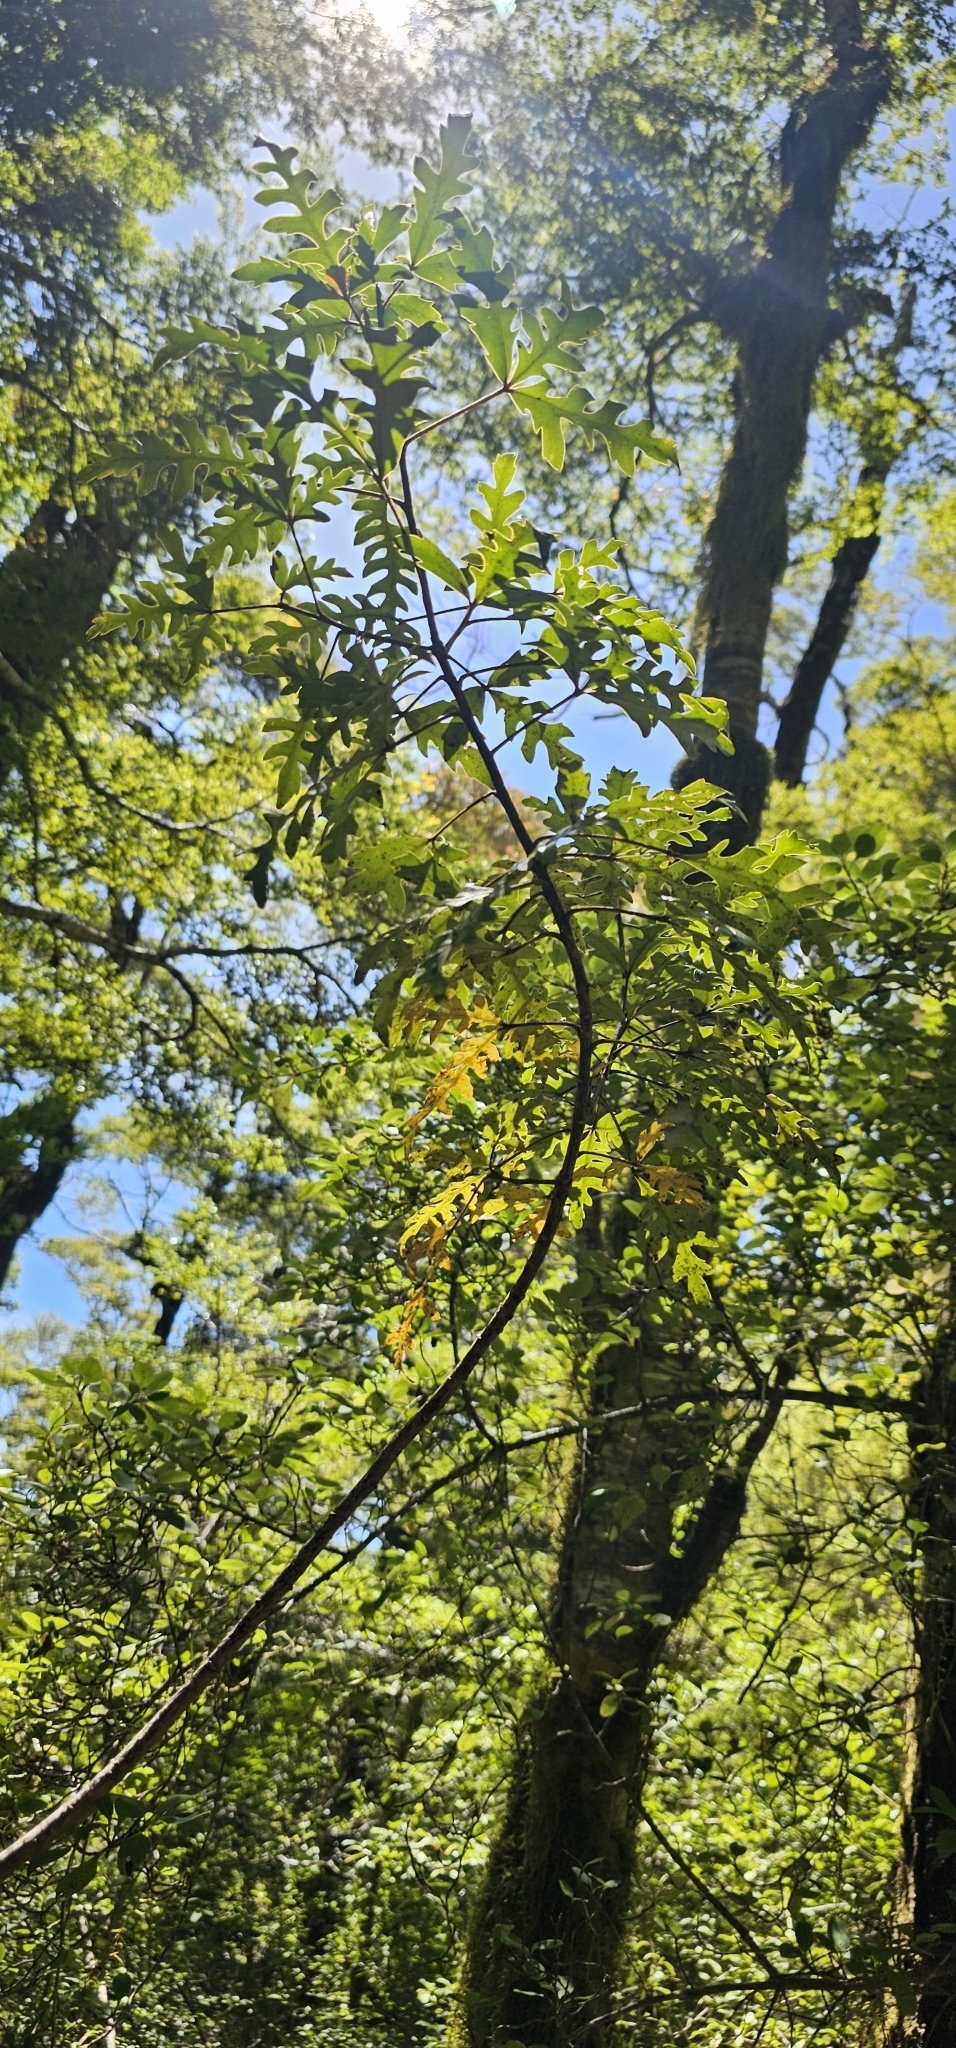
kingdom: Plantae
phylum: Tracheophyta
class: Magnoliopsida
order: Apiales
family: Araliaceae
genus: Raukaua
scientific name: Raukaua simplex
